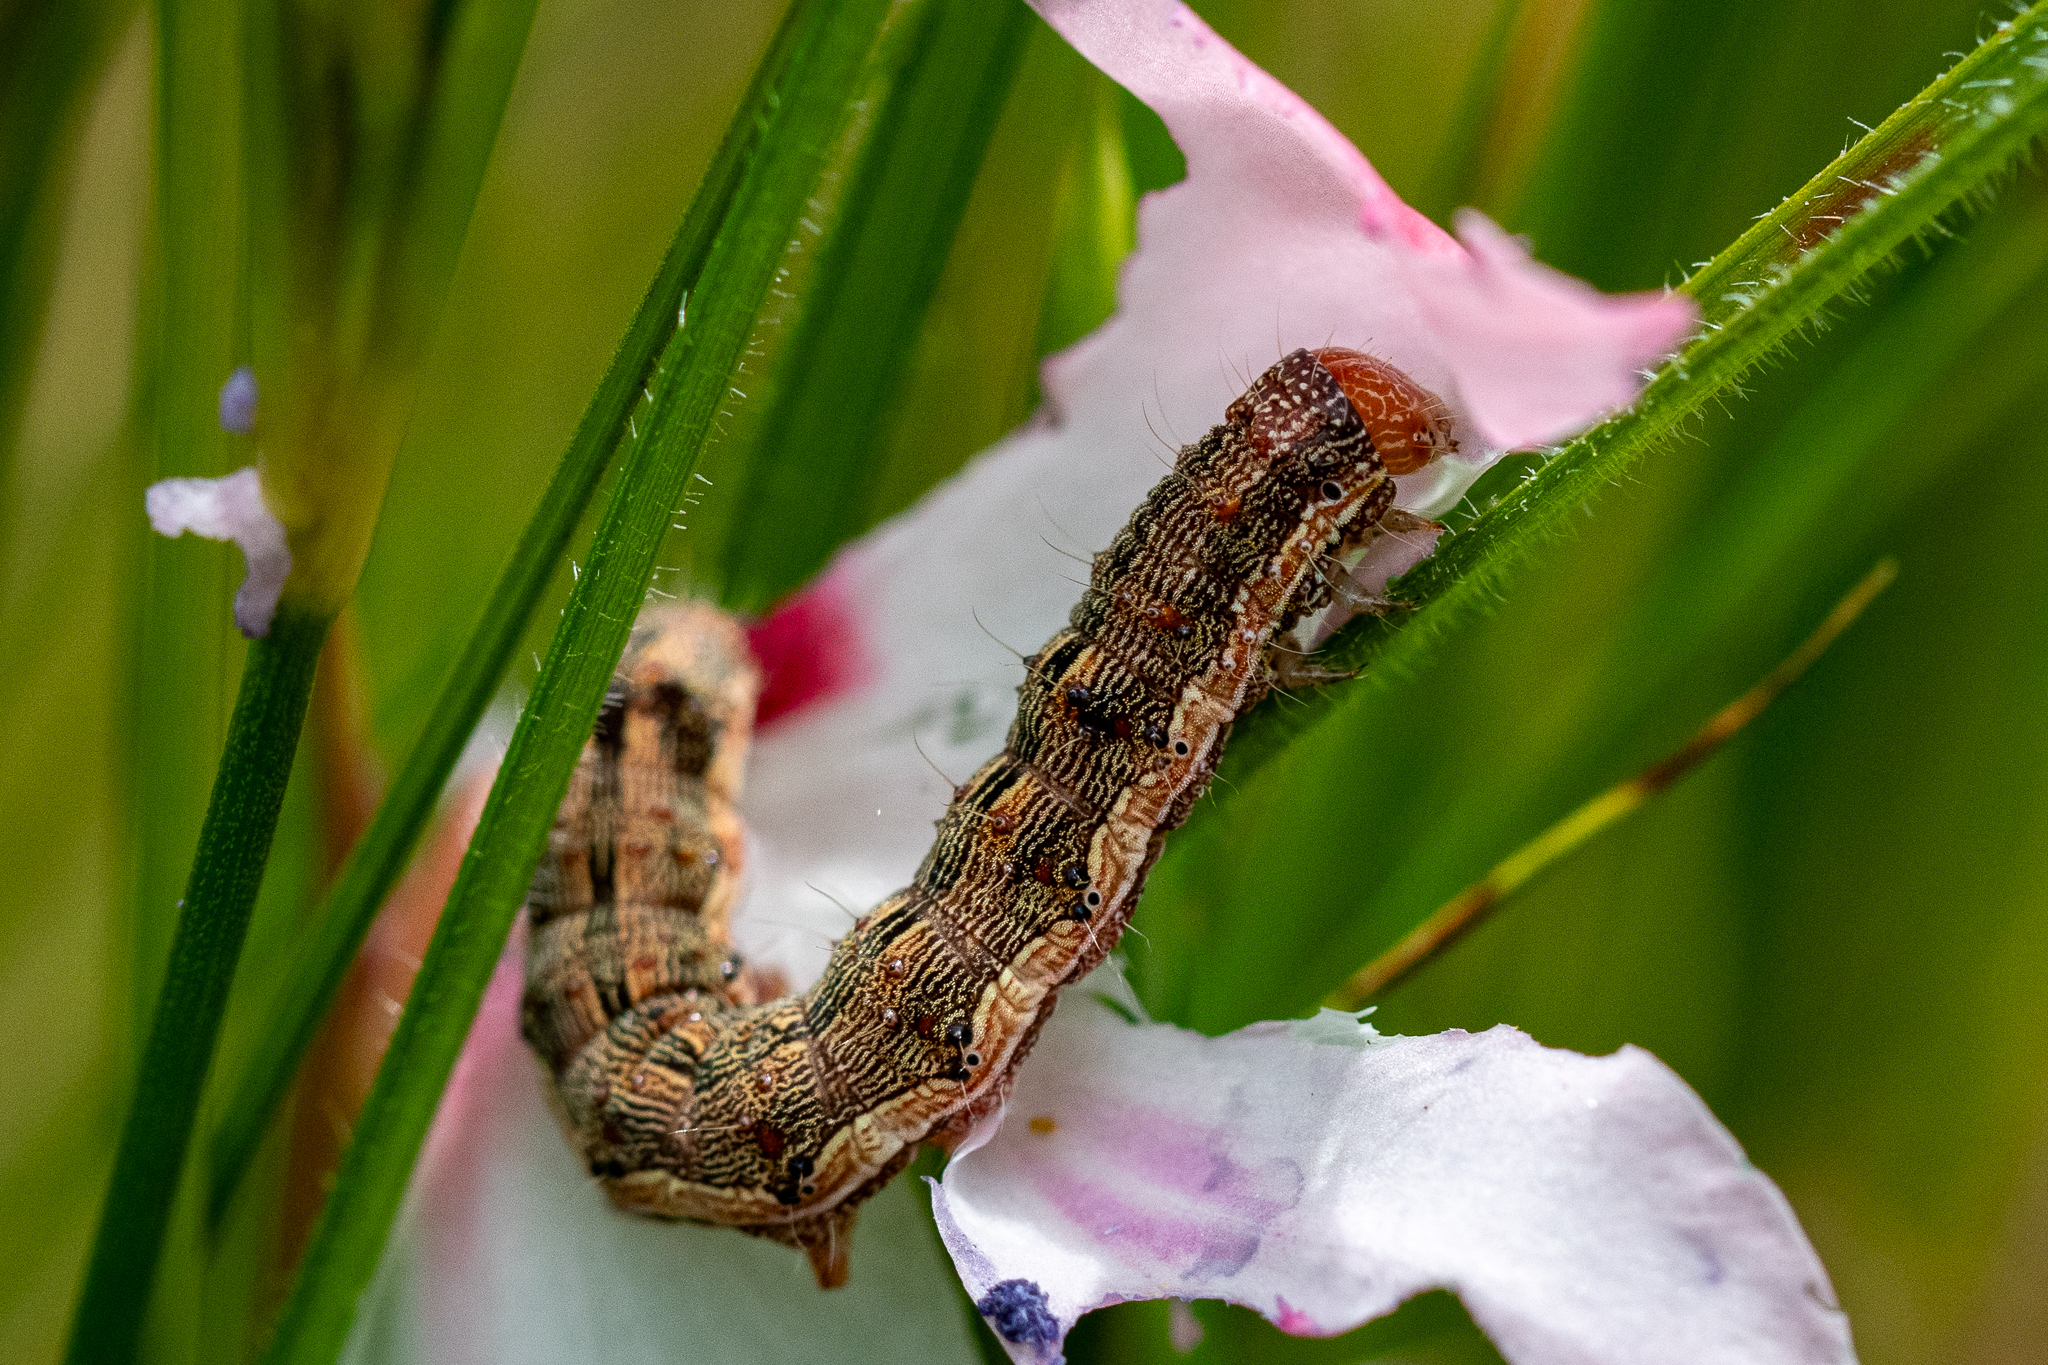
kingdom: Animalia
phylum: Arthropoda
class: Insecta
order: Lepidoptera
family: Noctuidae
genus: Helicoverpa
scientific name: Helicoverpa armigera
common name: Cotton bollworm
